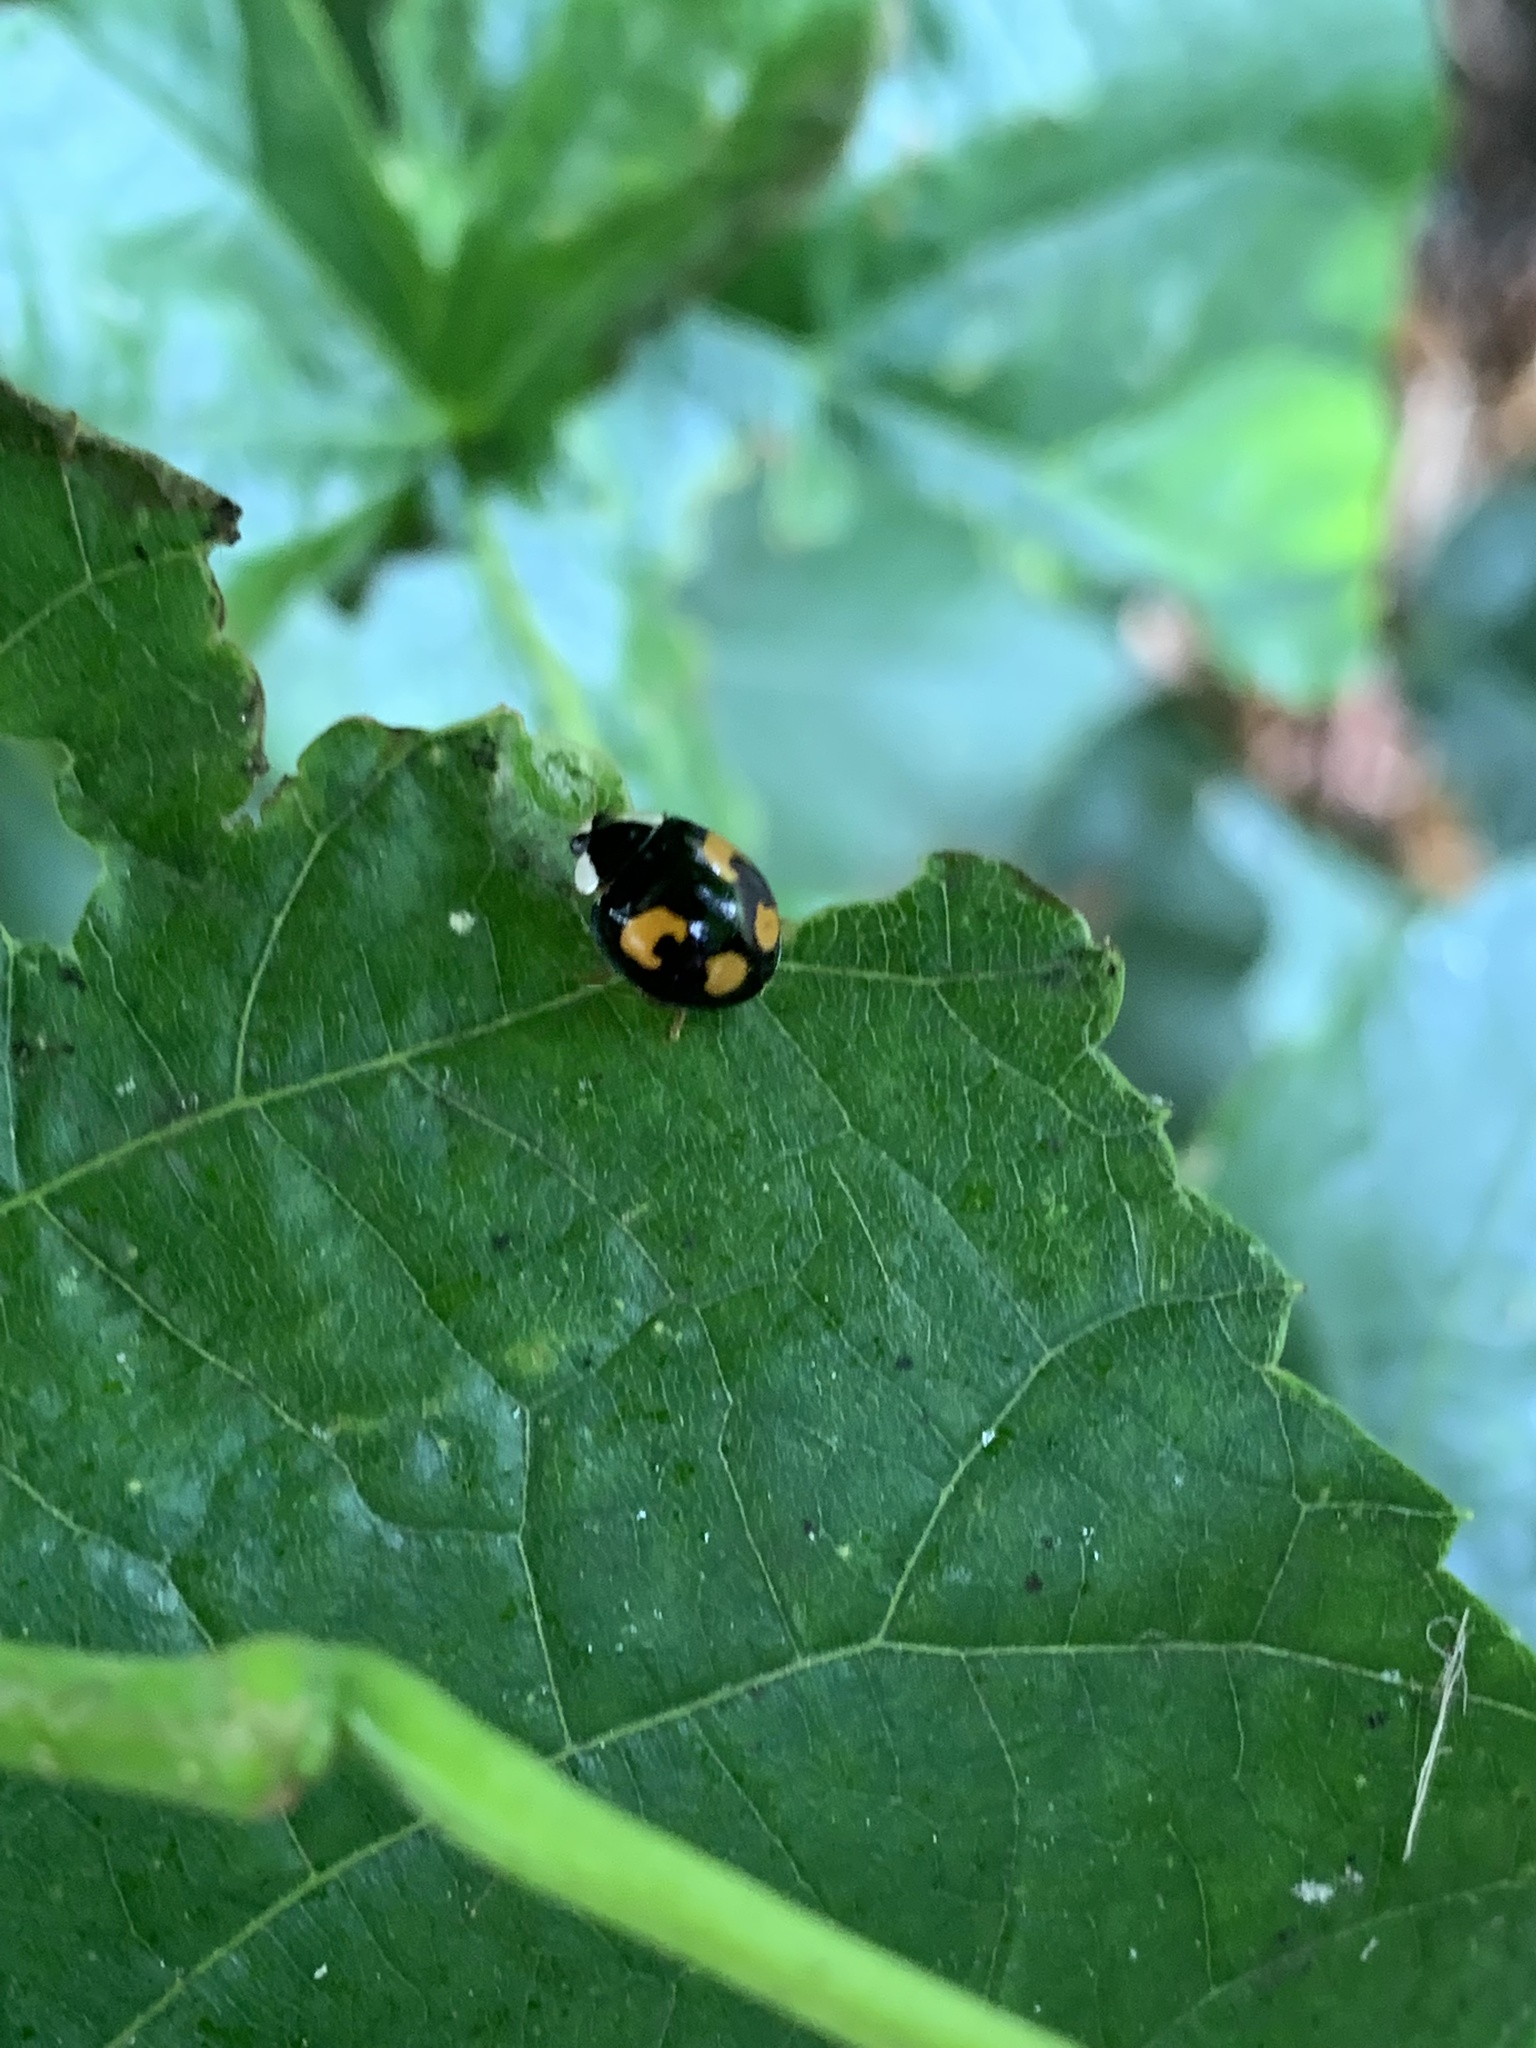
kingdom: Animalia
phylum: Arthropoda
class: Insecta
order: Coleoptera
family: Coccinellidae
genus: Harmonia
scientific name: Harmonia axyridis
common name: Harlequin ladybird
